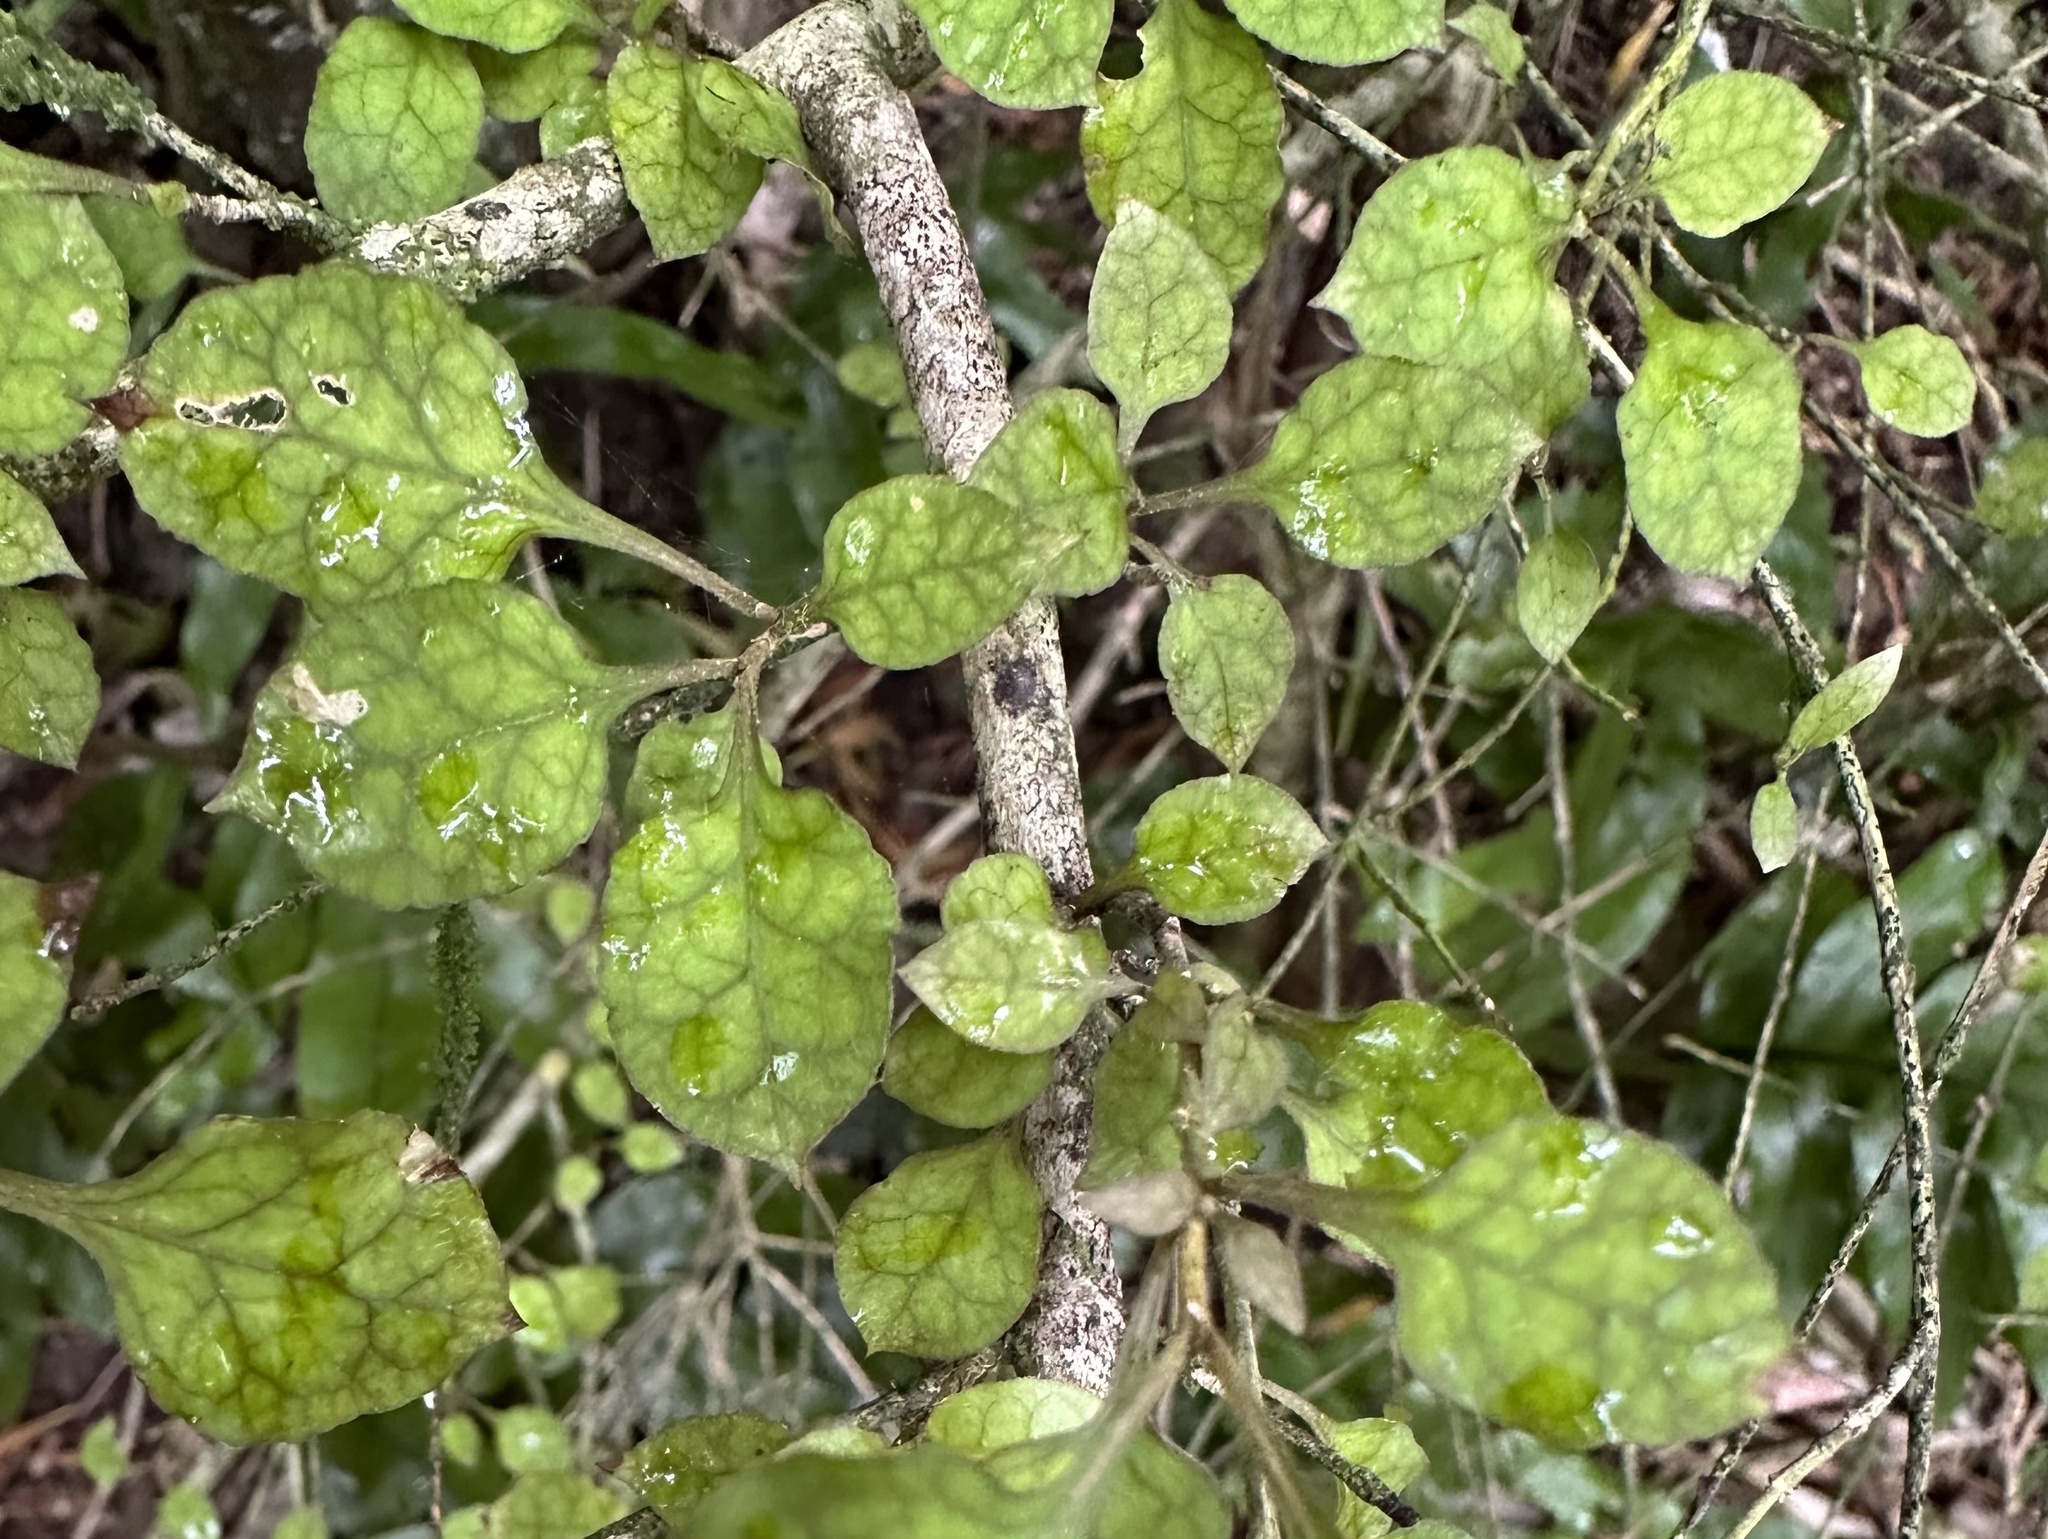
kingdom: Plantae
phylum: Tracheophyta
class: Magnoliopsida
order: Gentianales
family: Rubiaceae
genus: Coprosma
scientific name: Coprosma areolata
